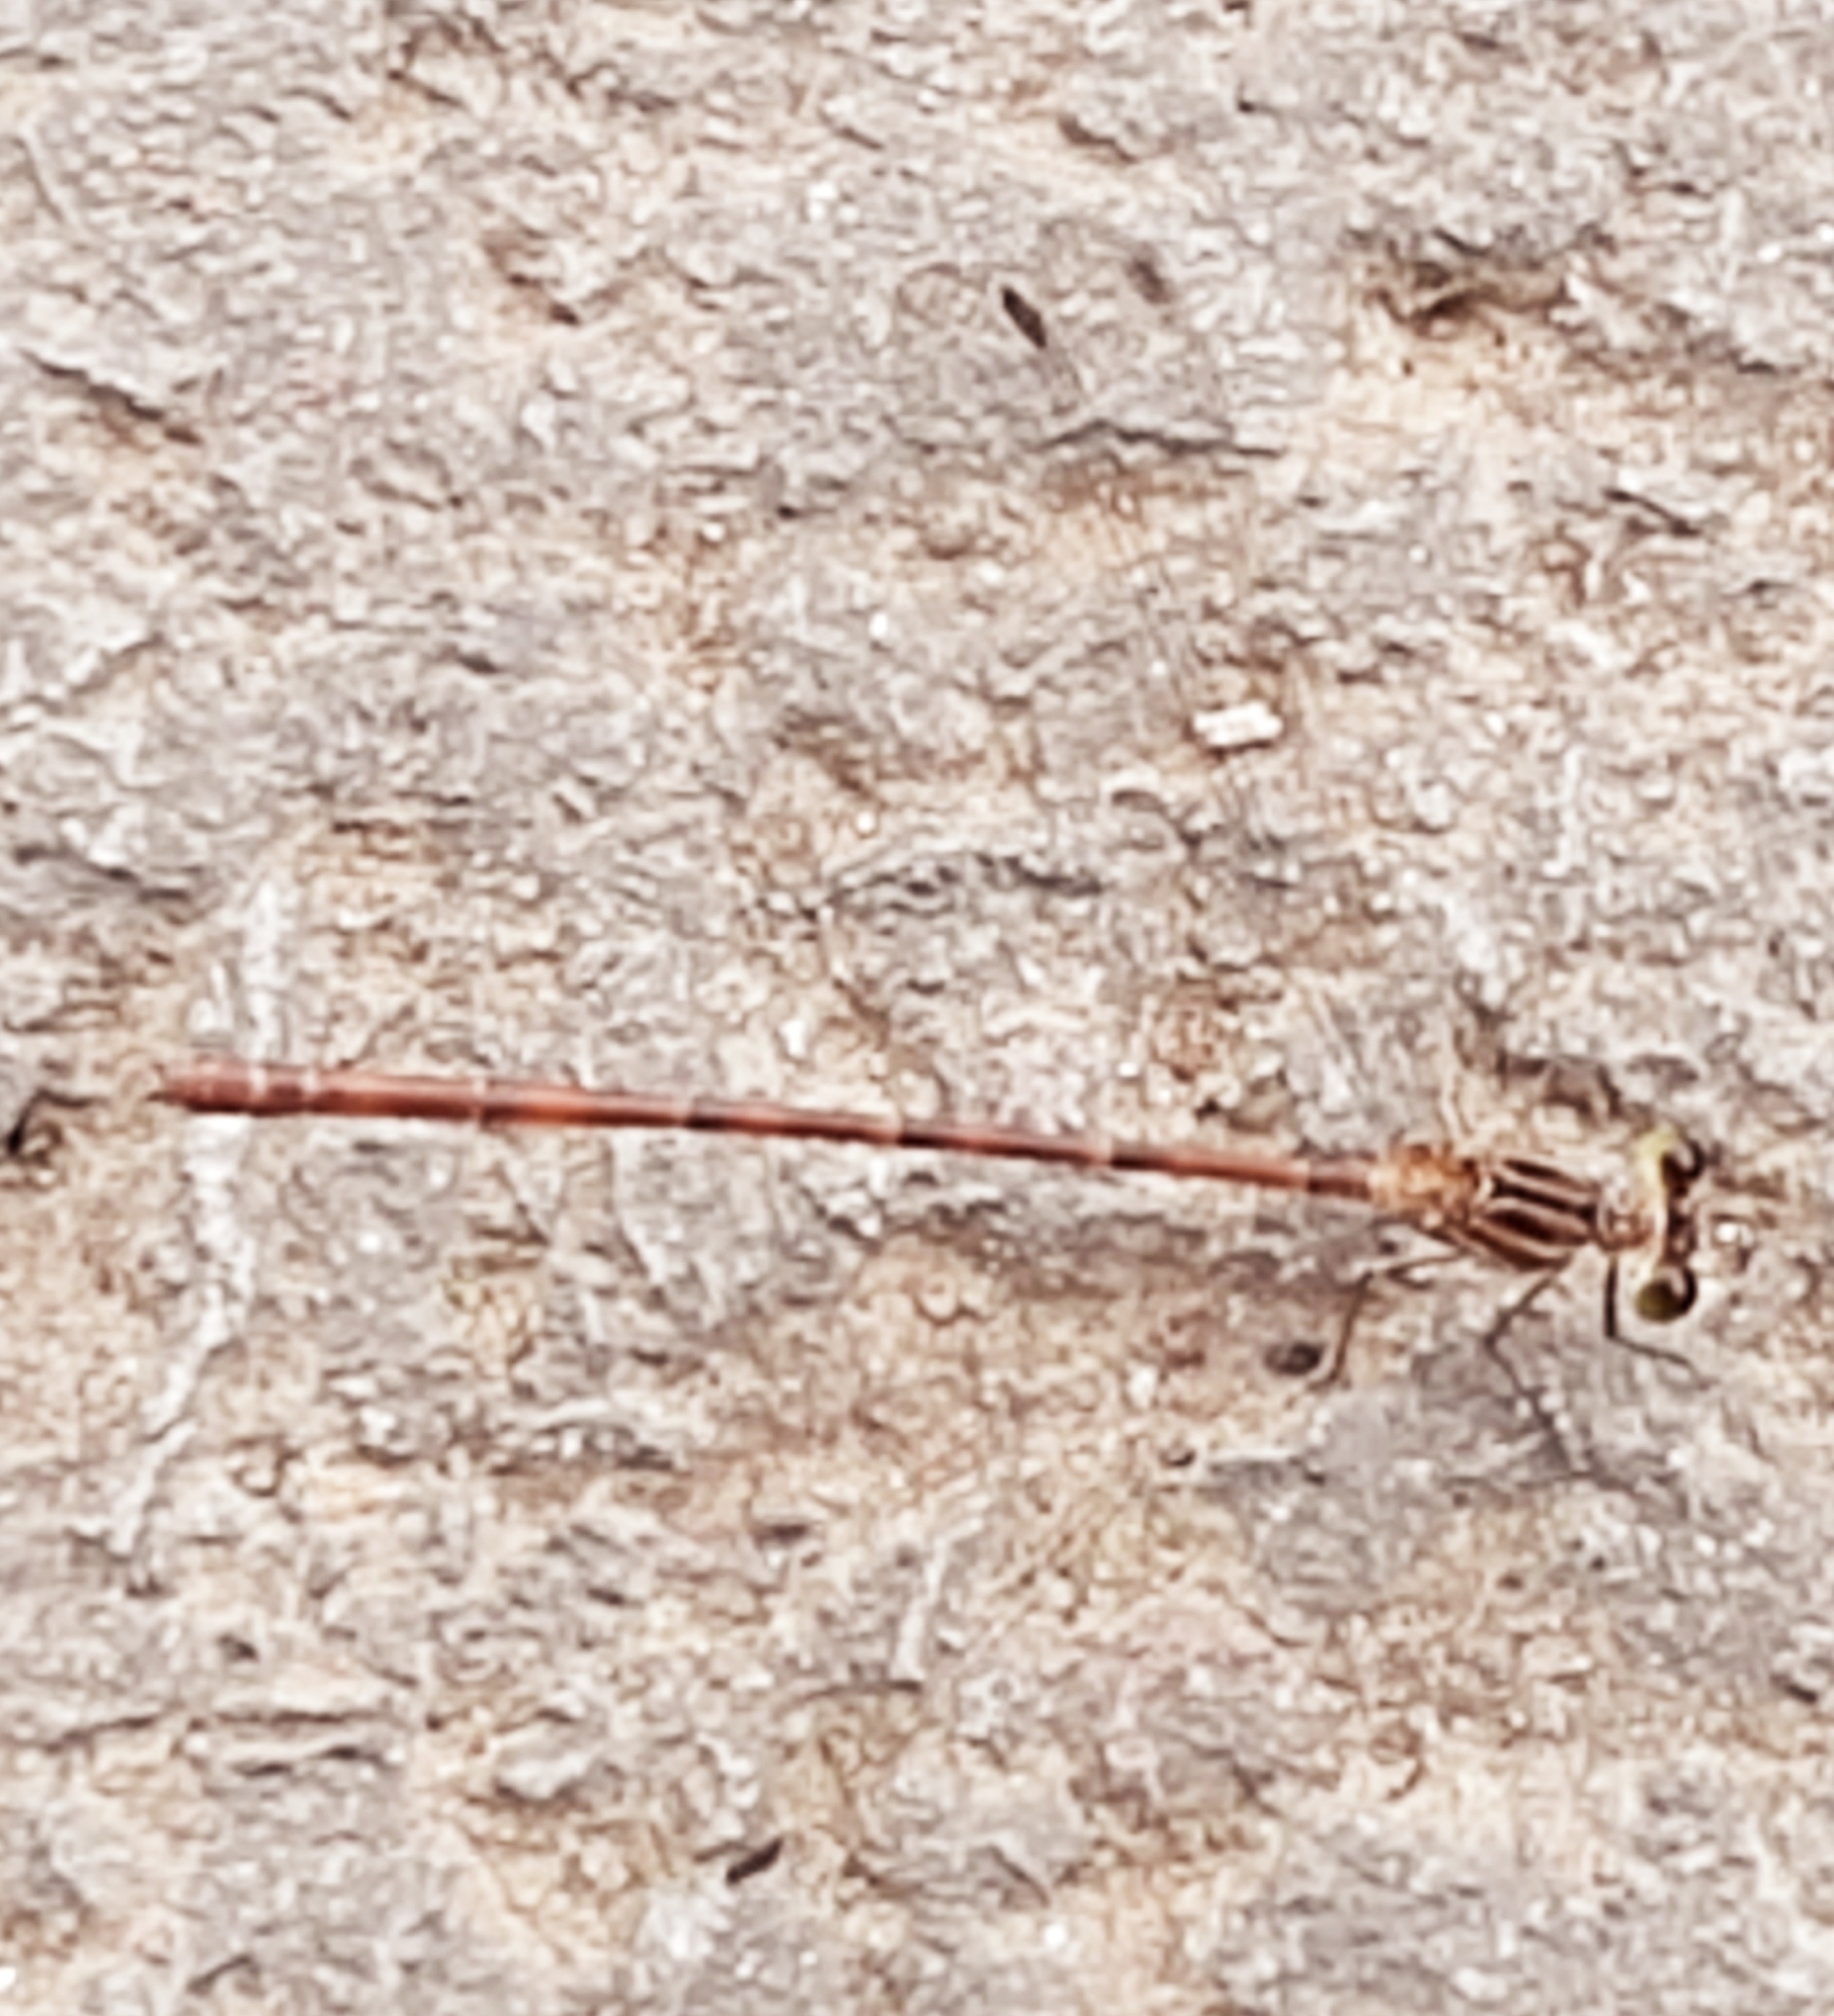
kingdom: Animalia
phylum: Arthropoda
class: Insecta
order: Odonata
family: Heteragrionidae
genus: Heteragrion
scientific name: Heteragrion erythrogastrum
